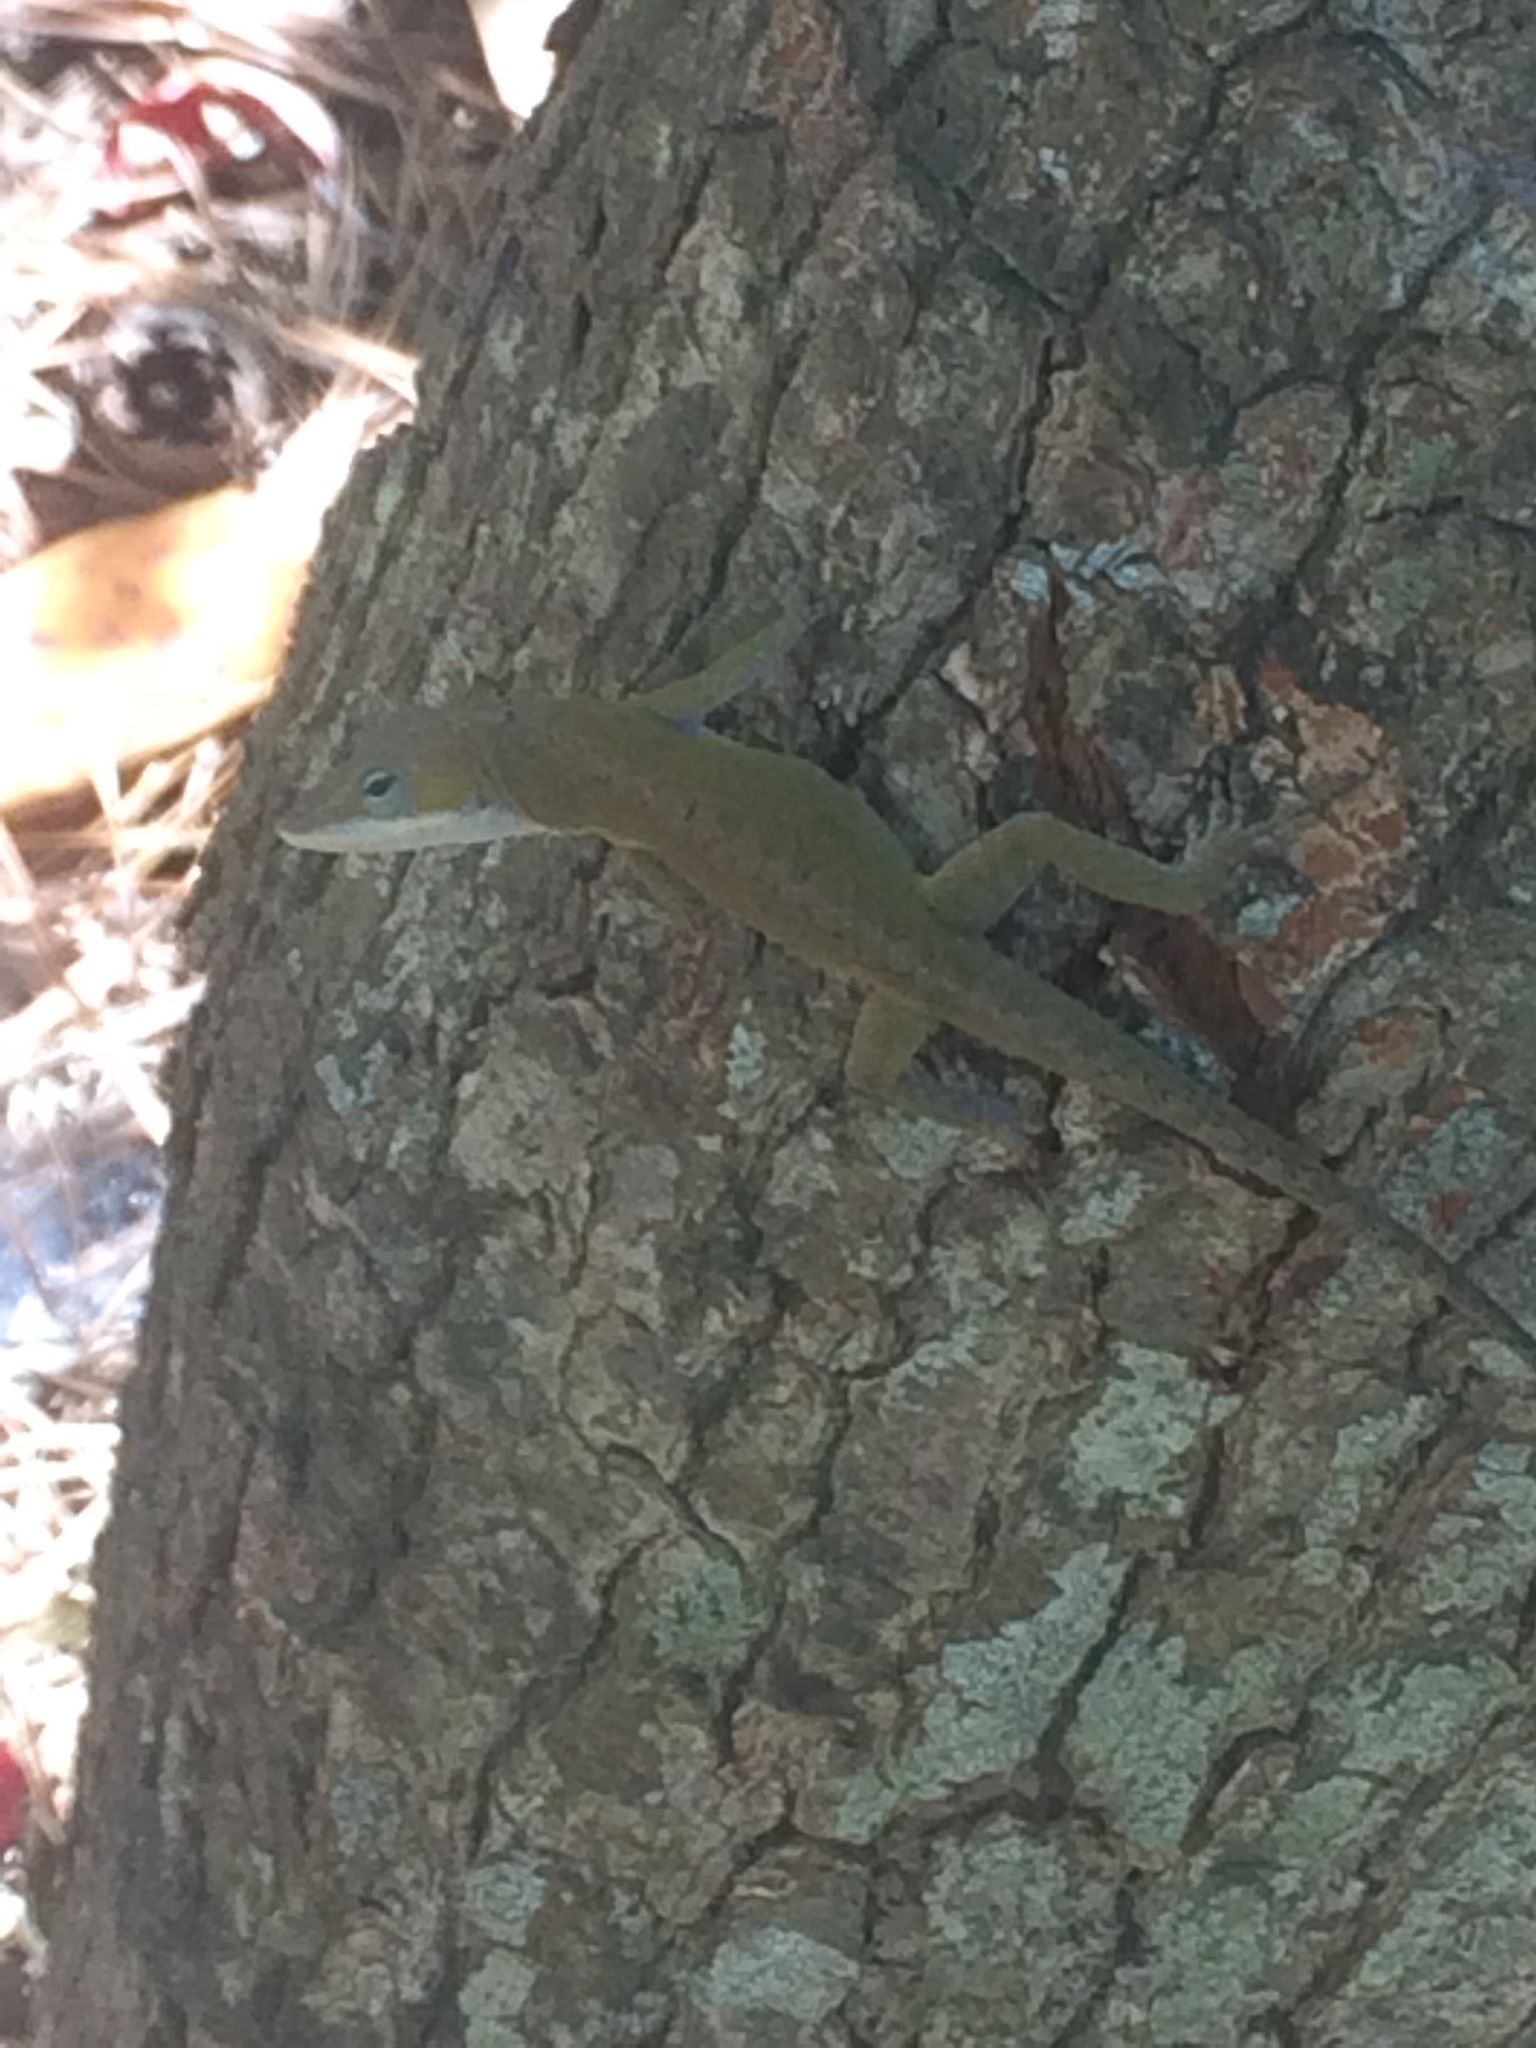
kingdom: Animalia
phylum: Chordata
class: Squamata
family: Dactyloidae
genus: Anolis
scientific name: Anolis carolinensis
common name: Green anole
